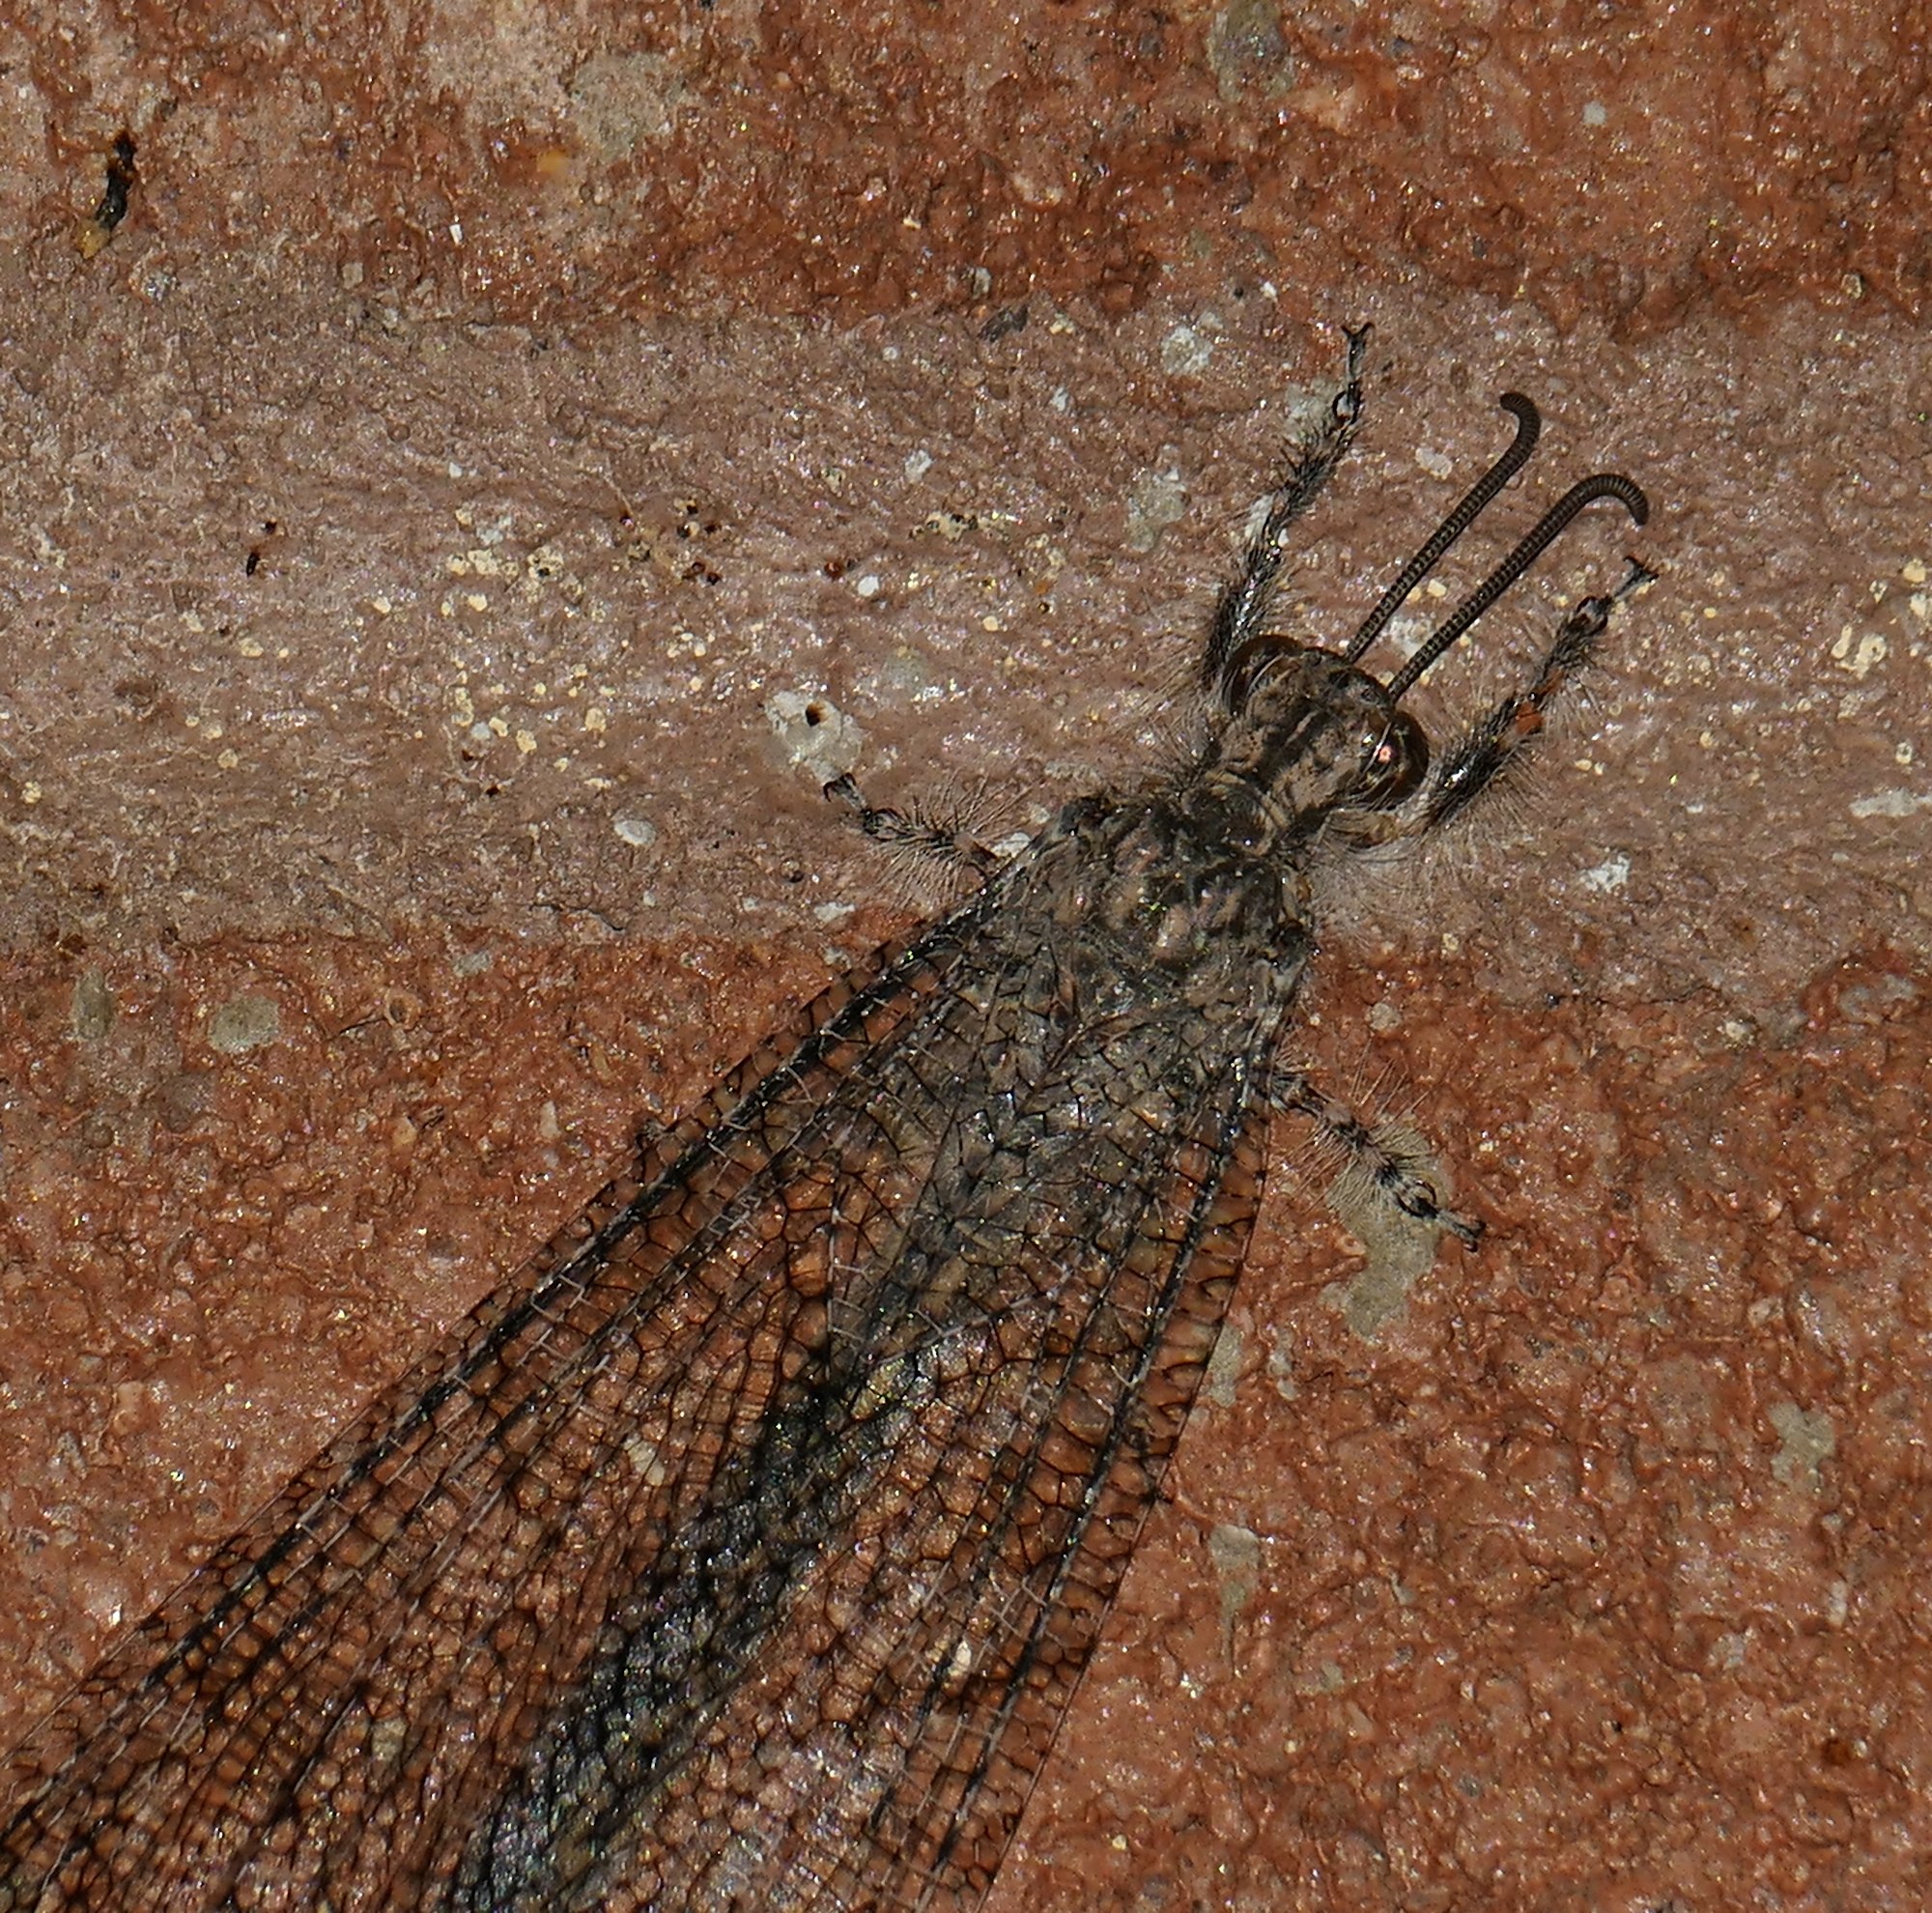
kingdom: Animalia
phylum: Arthropoda
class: Insecta
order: Neuroptera
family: Myrmeleontidae
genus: Vella
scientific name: Vella fallax
